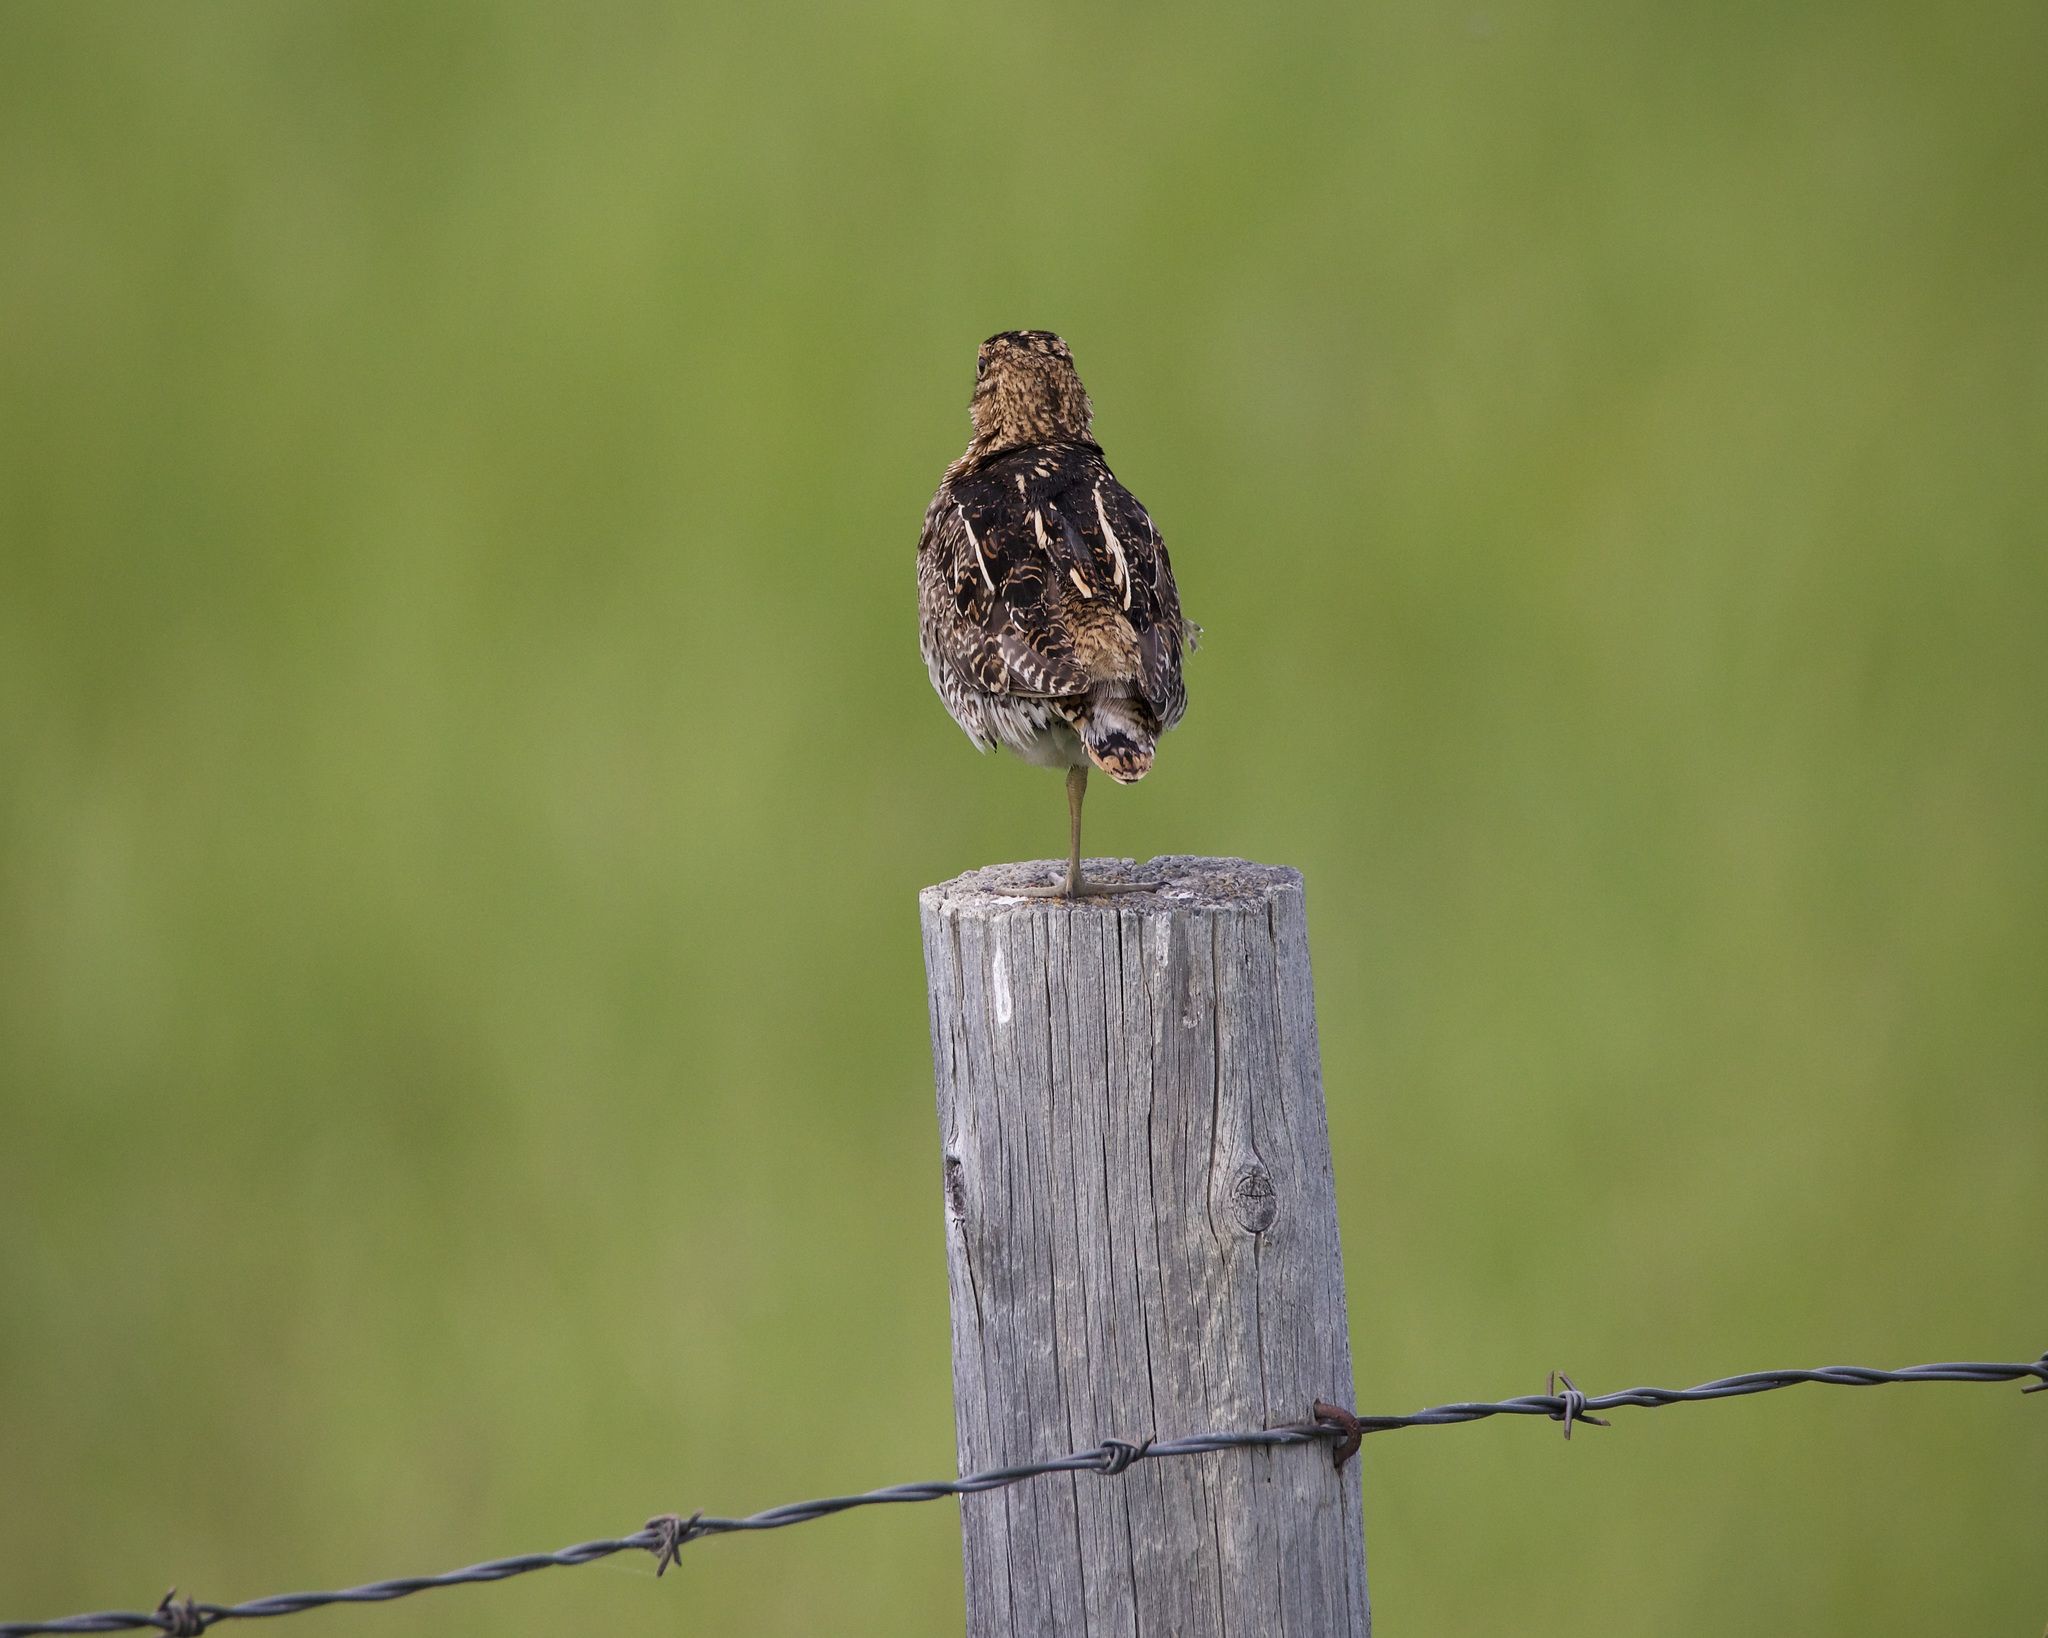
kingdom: Animalia
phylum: Chordata
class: Aves
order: Charadriiformes
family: Scolopacidae
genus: Gallinago
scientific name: Gallinago delicata
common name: Wilson's snipe
